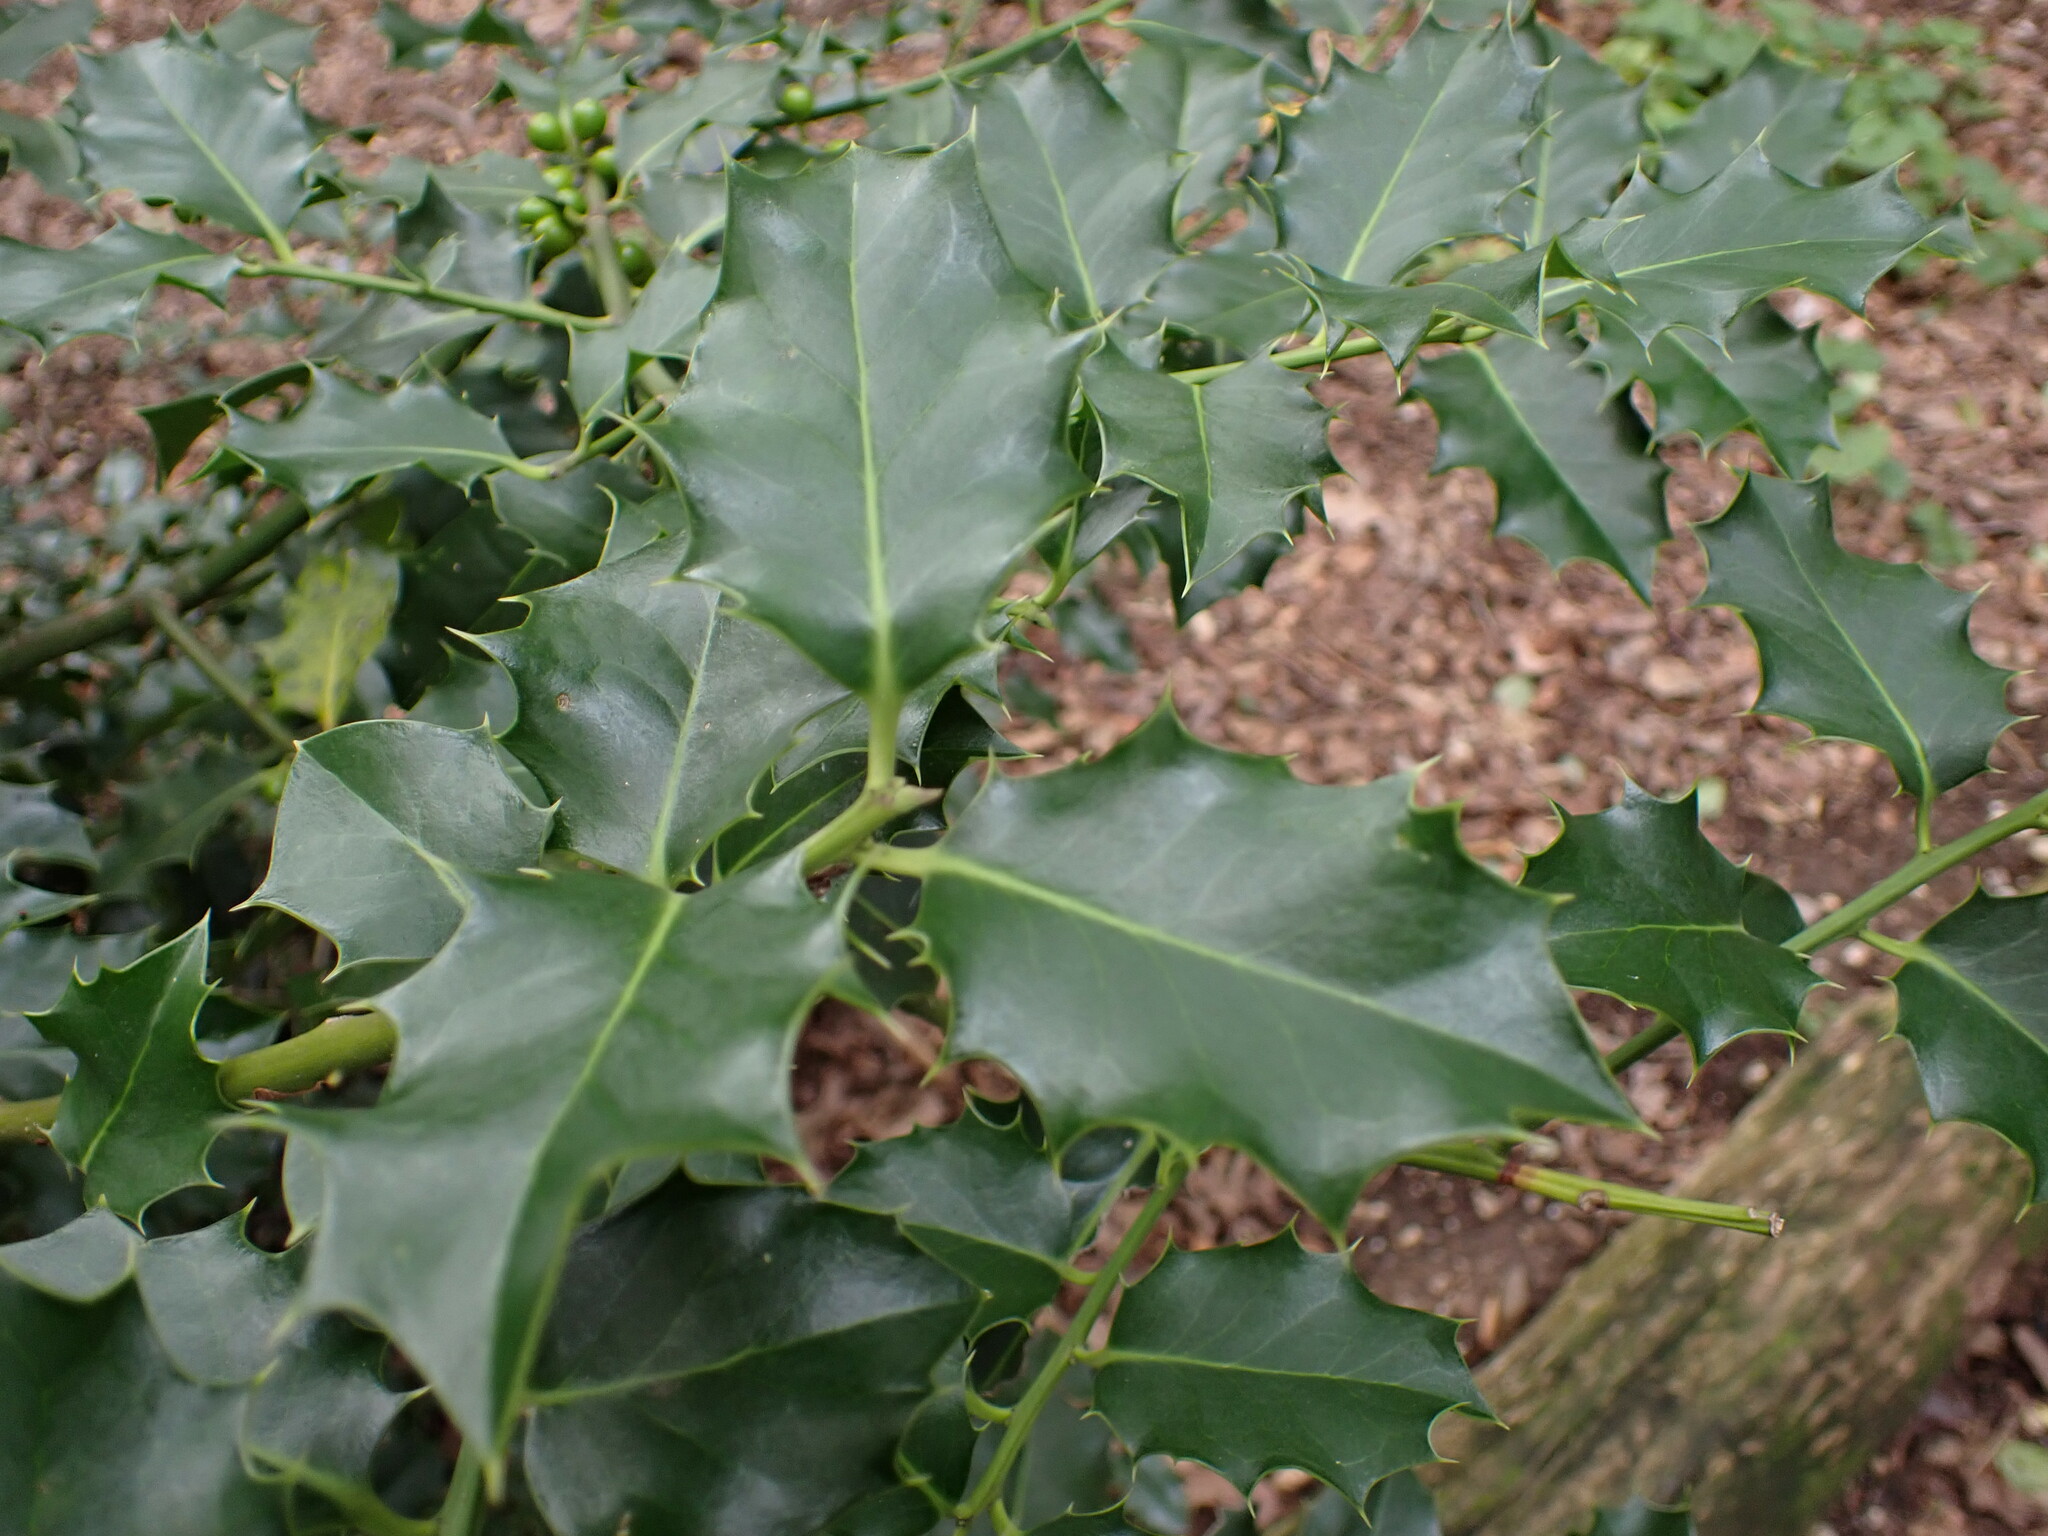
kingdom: Plantae
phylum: Tracheophyta
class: Magnoliopsida
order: Aquifoliales
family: Aquifoliaceae
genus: Ilex
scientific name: Ilex aquifolium
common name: English holly
